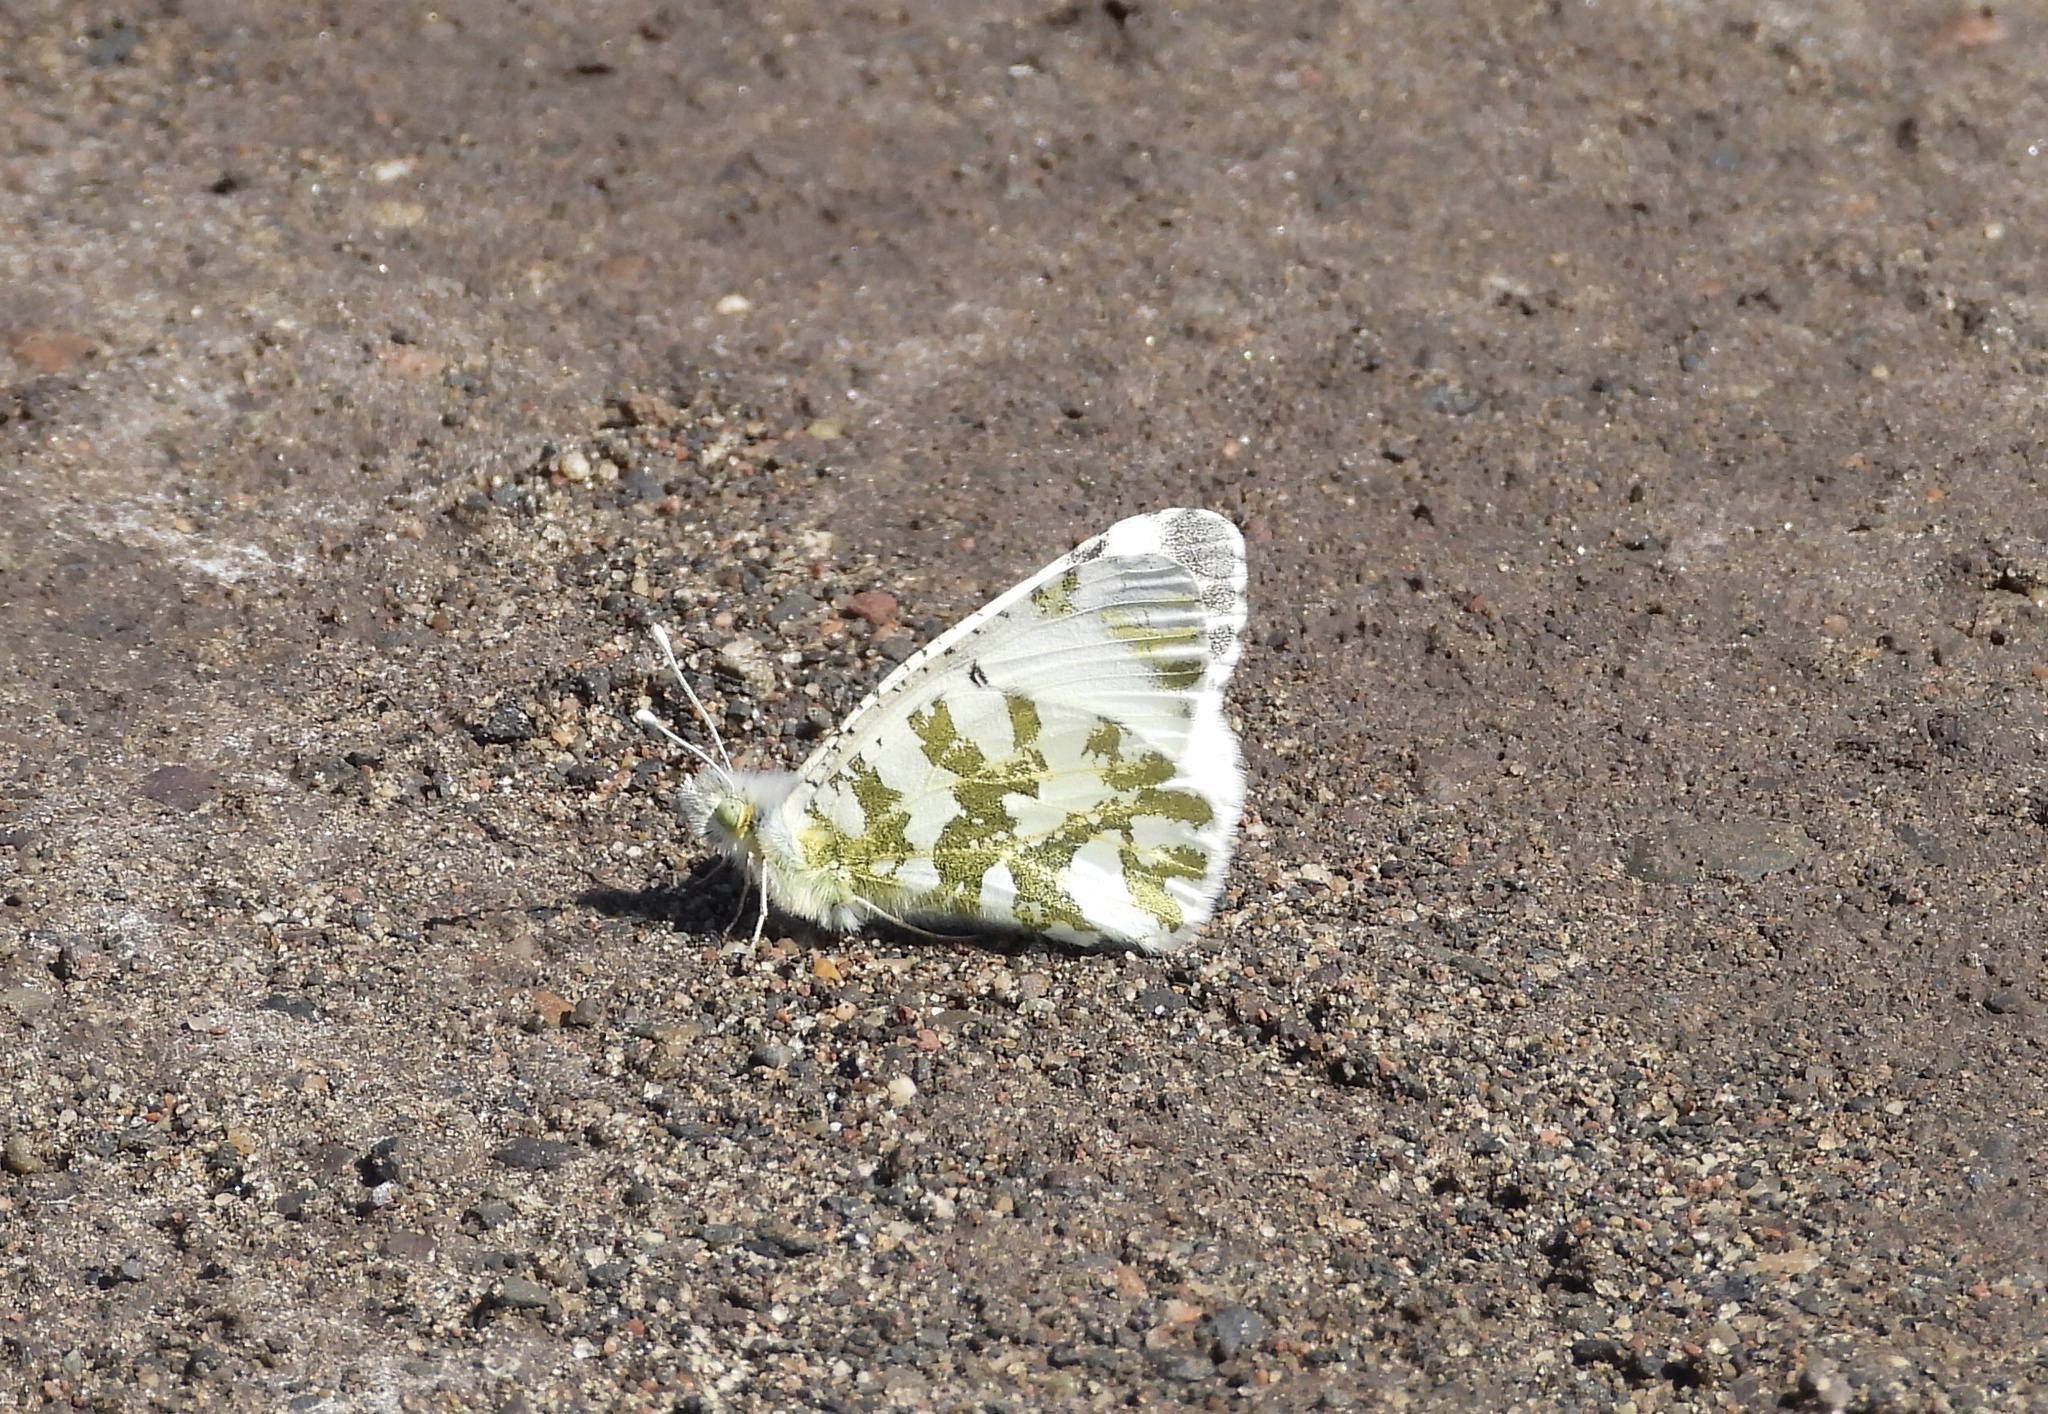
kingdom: Animalia
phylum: Arthropoda
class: Insecta
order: Lepidoptera
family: Pieridae
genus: Euchloe
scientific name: Euchloe ausonides
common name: Creamy marblewing
